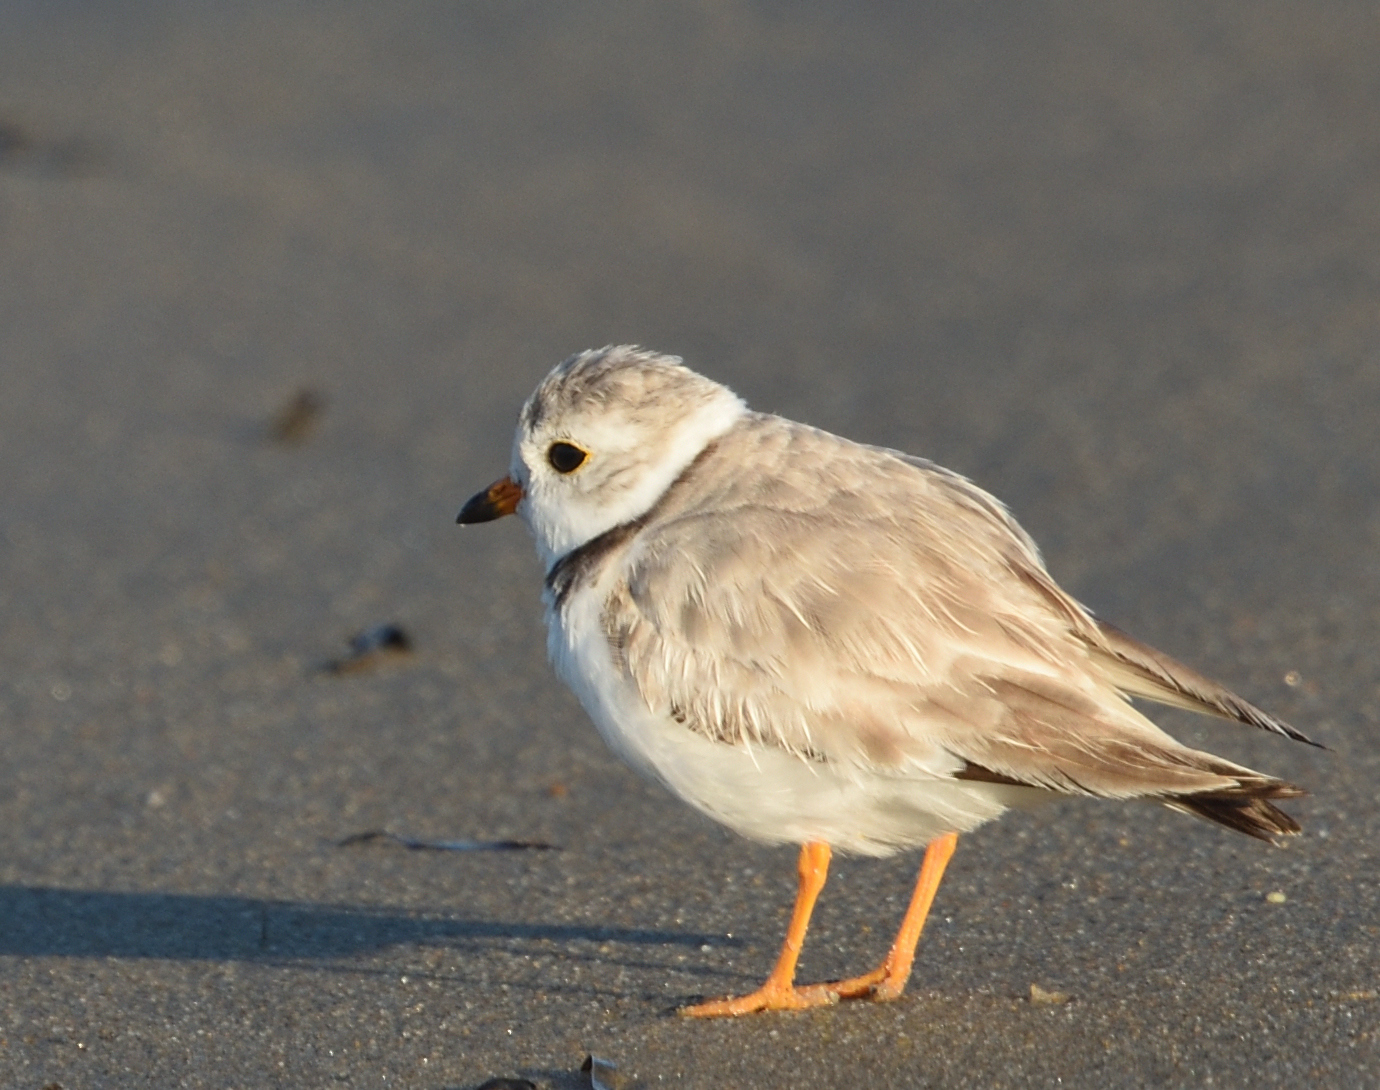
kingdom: Animalia
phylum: Chordata
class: Aves
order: Charadriiformes
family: Charadriidae
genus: Charadrius
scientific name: Charadrius melodus
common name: Piping plover
